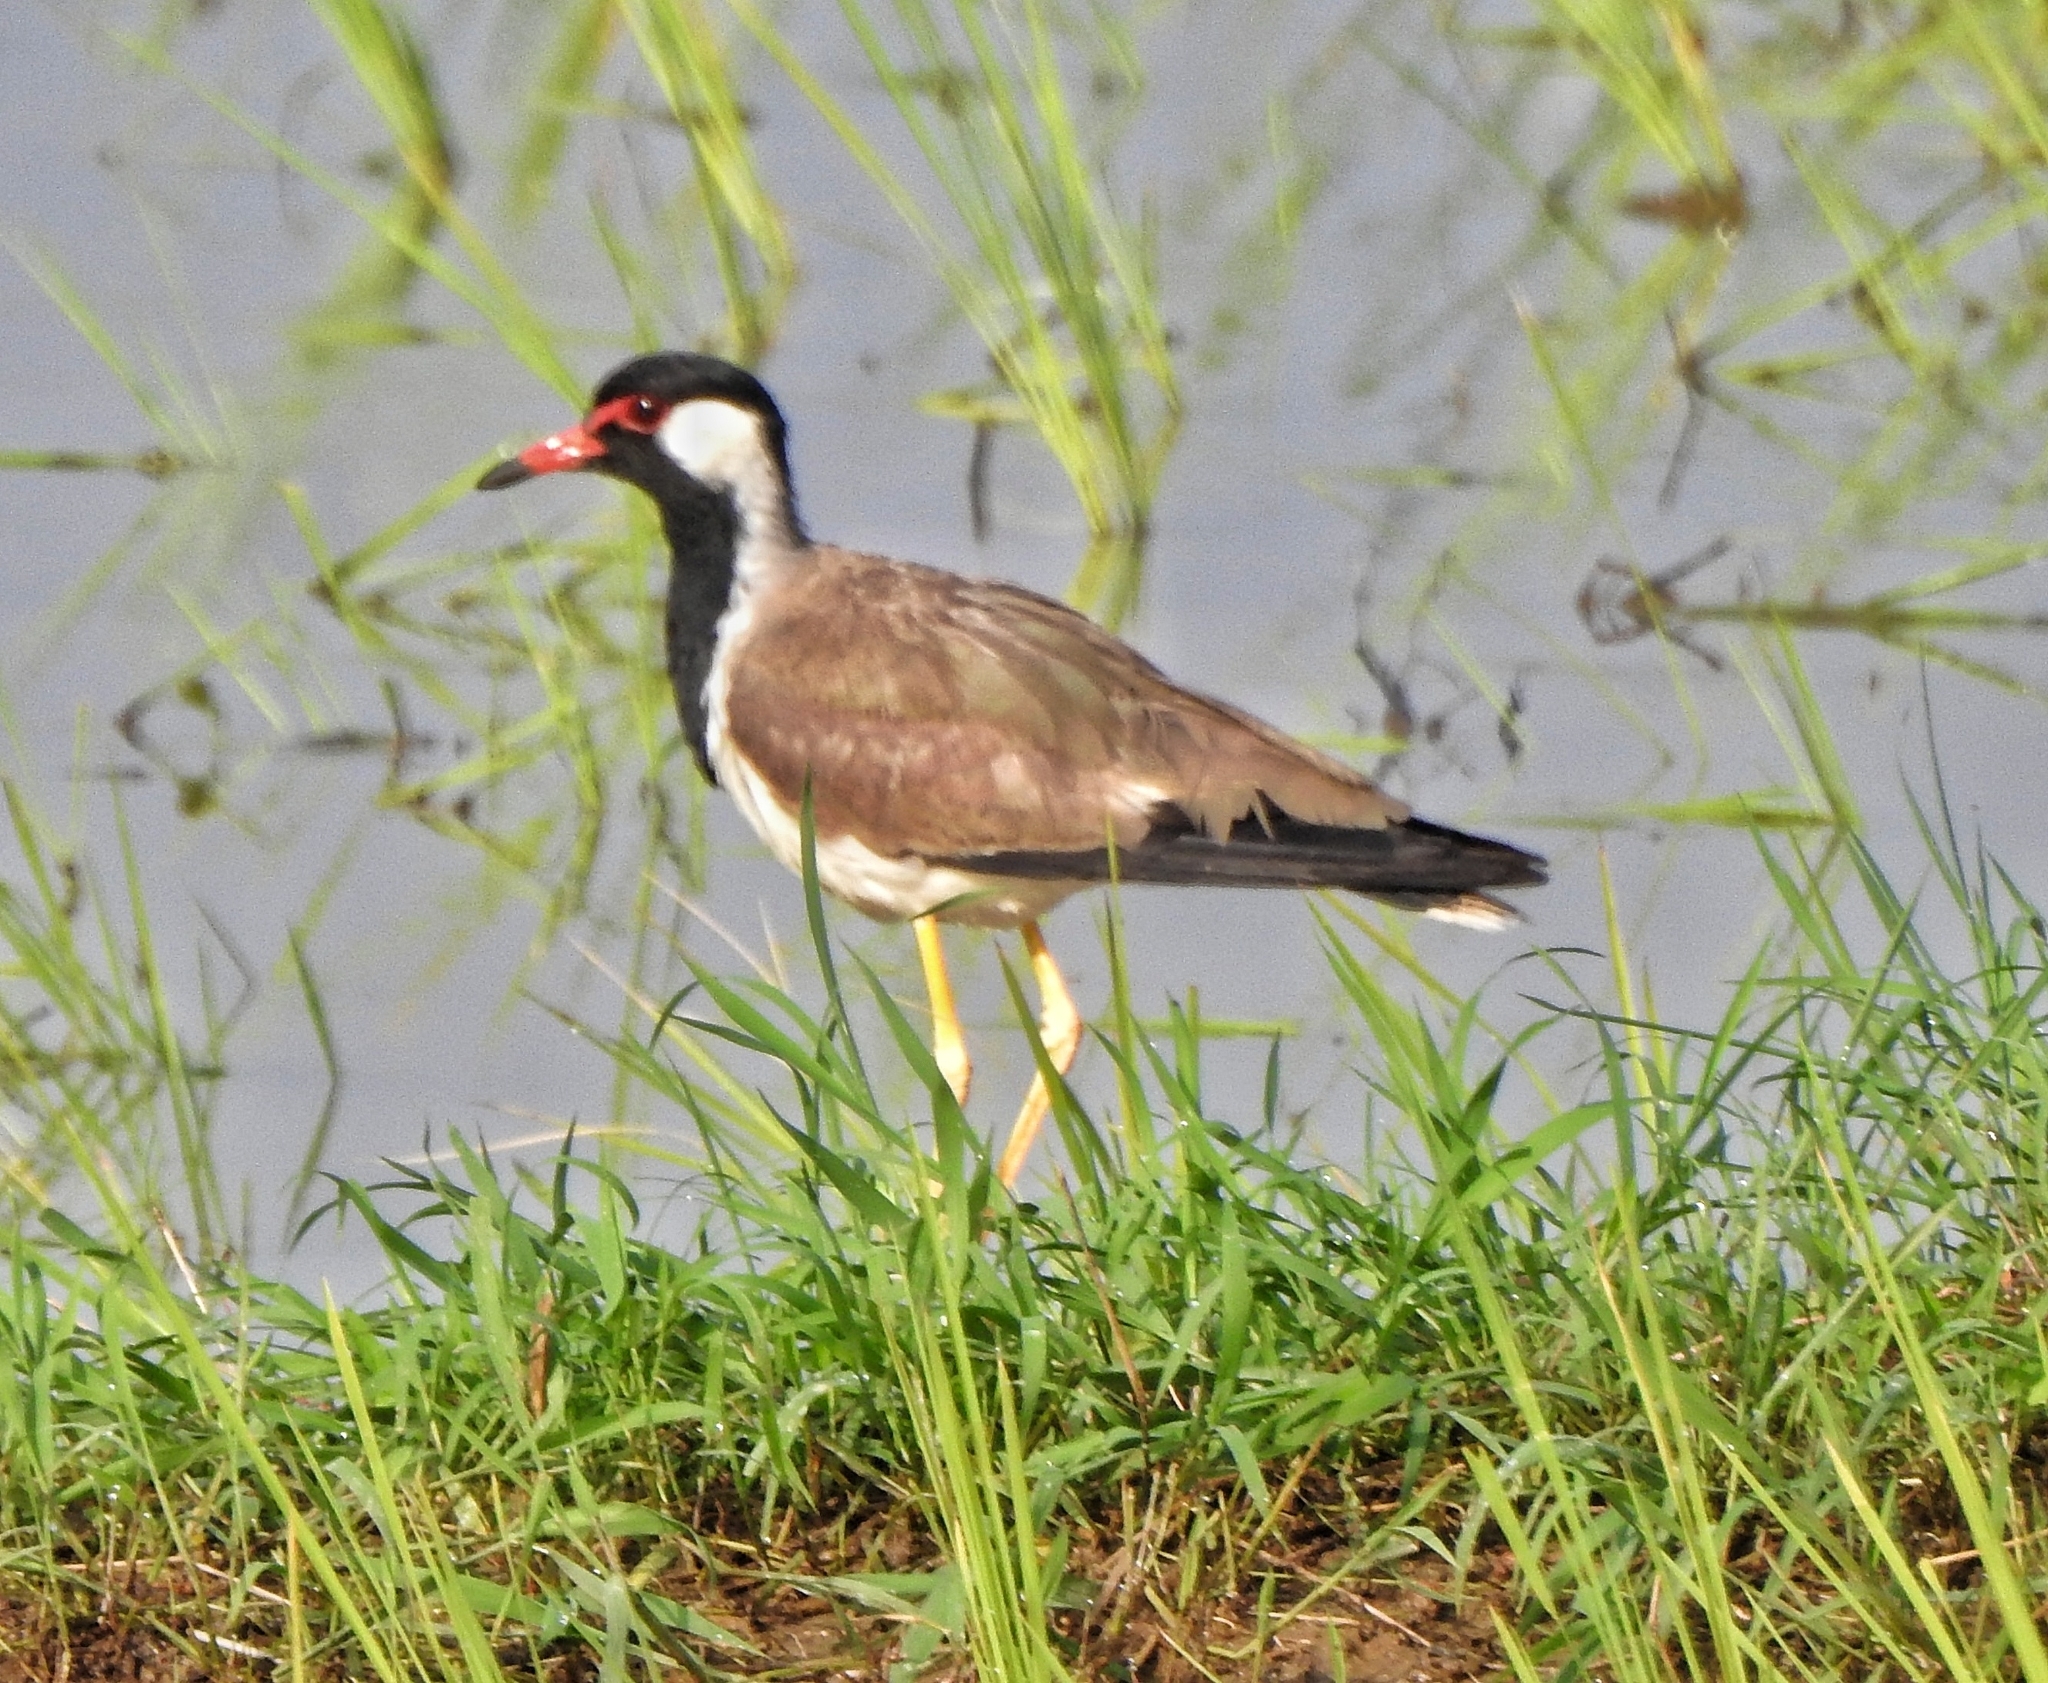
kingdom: Animalia
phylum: Chordata
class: Aves
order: Charadriiformes
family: Charadriidae
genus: Vanellus
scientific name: Vanellus indicus
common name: Red-wattled lapwing
